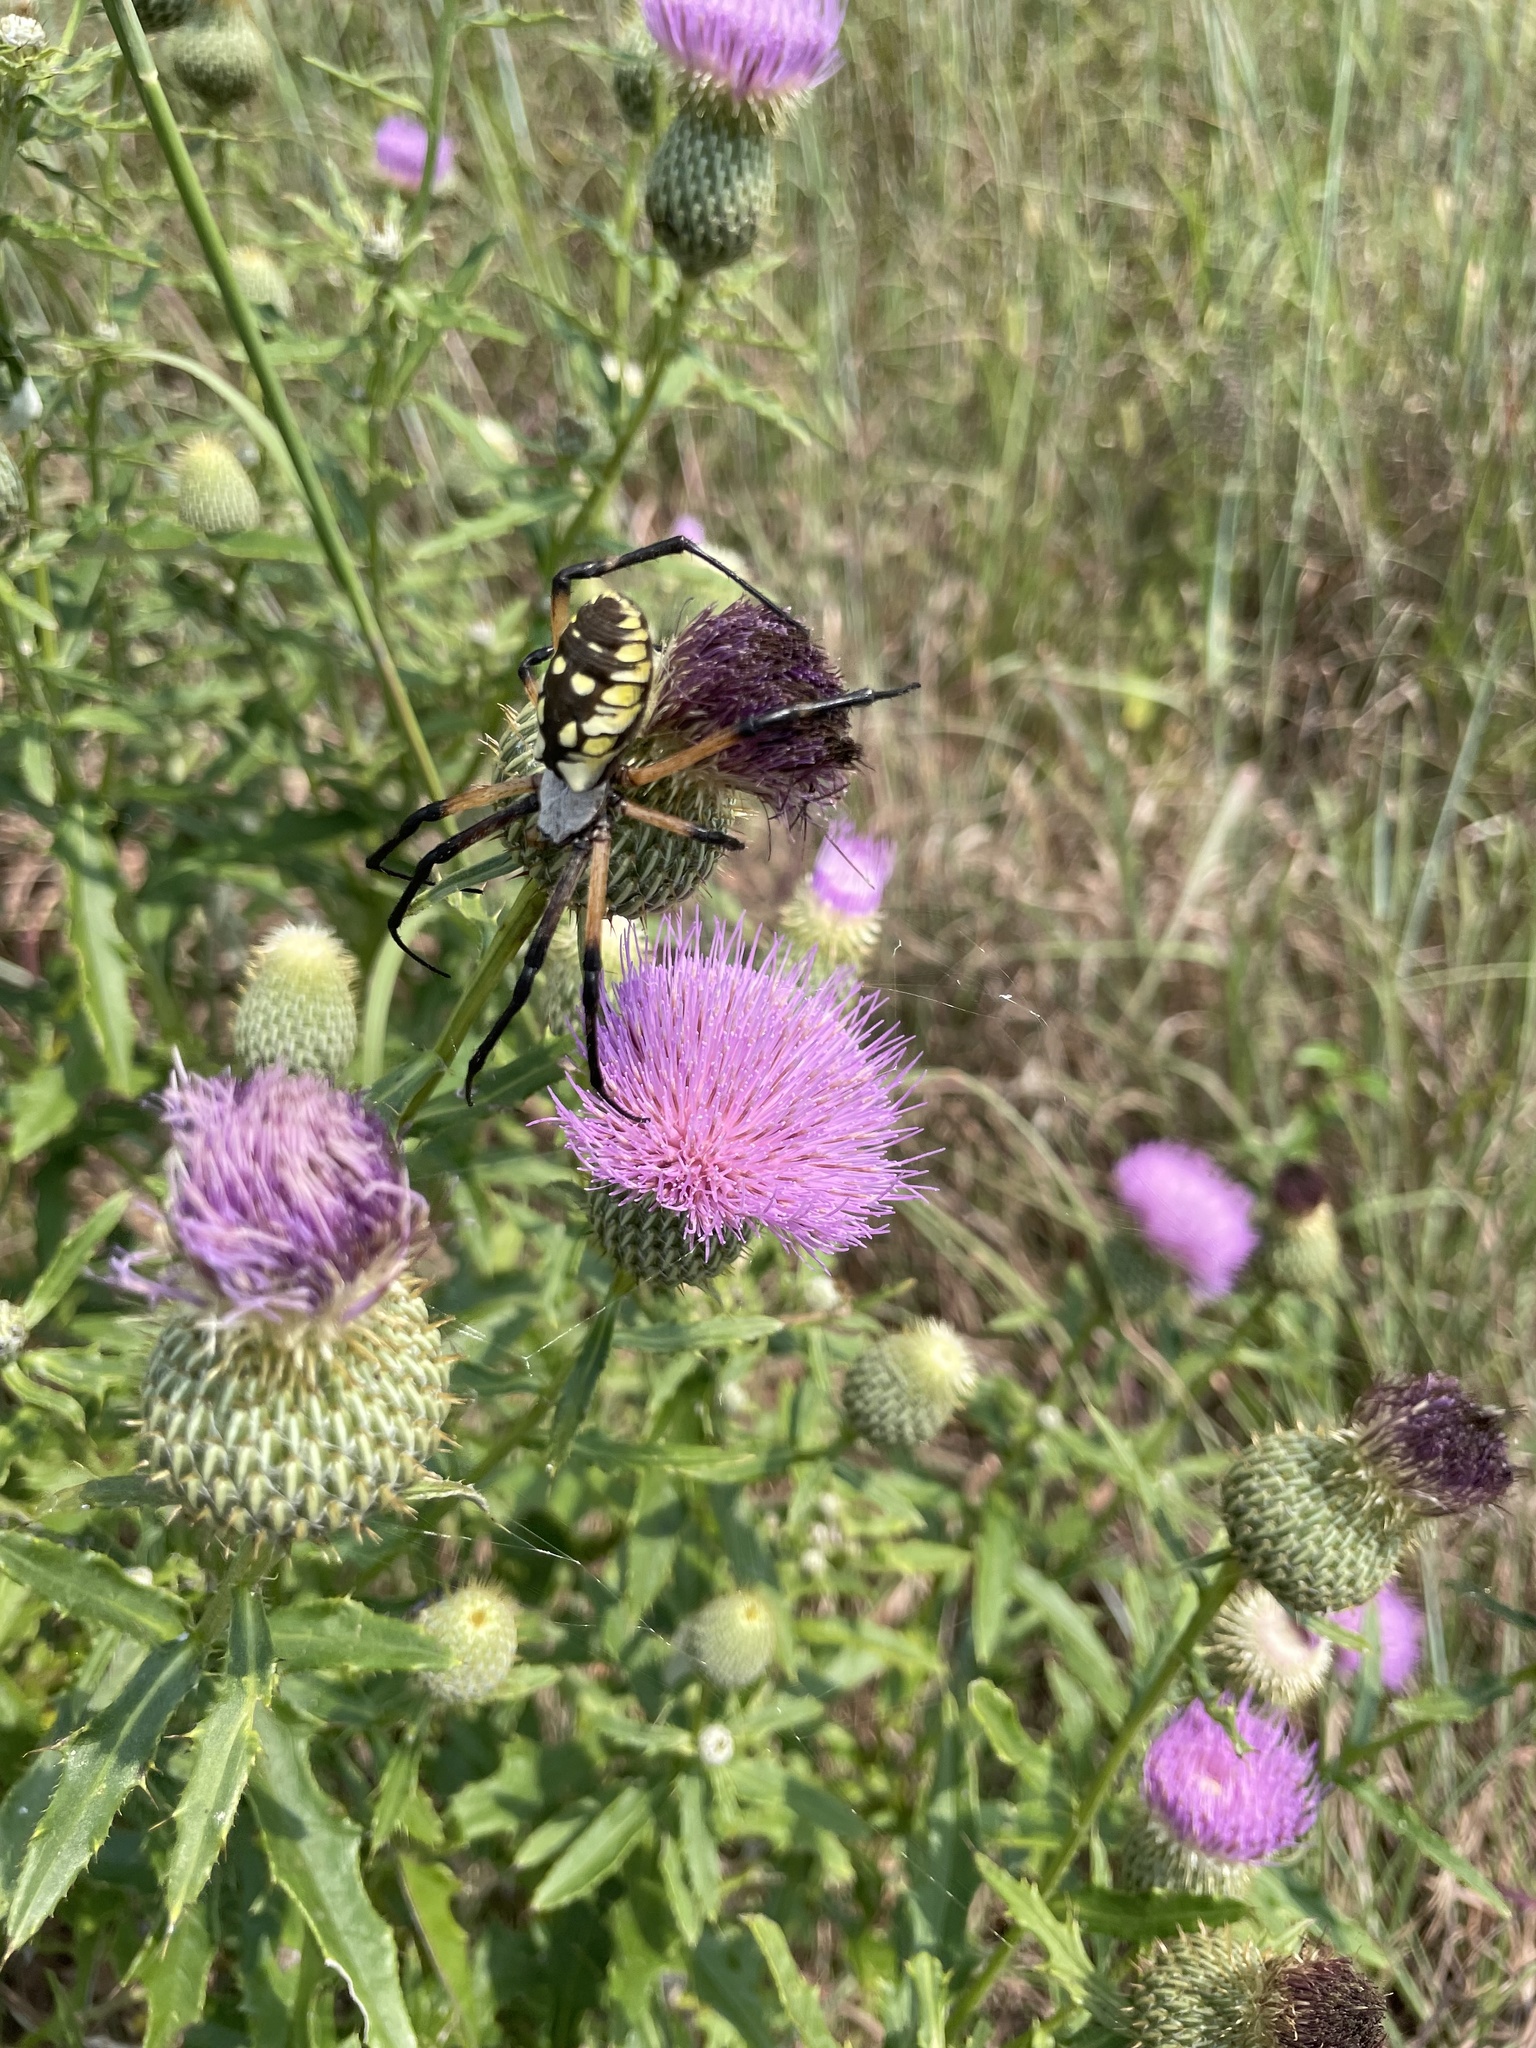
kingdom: Animalia
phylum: Arthropoda
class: Arachnida
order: Araneae
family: Araneidae
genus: Argiope
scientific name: Argiope aurantia
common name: Orb weavers
